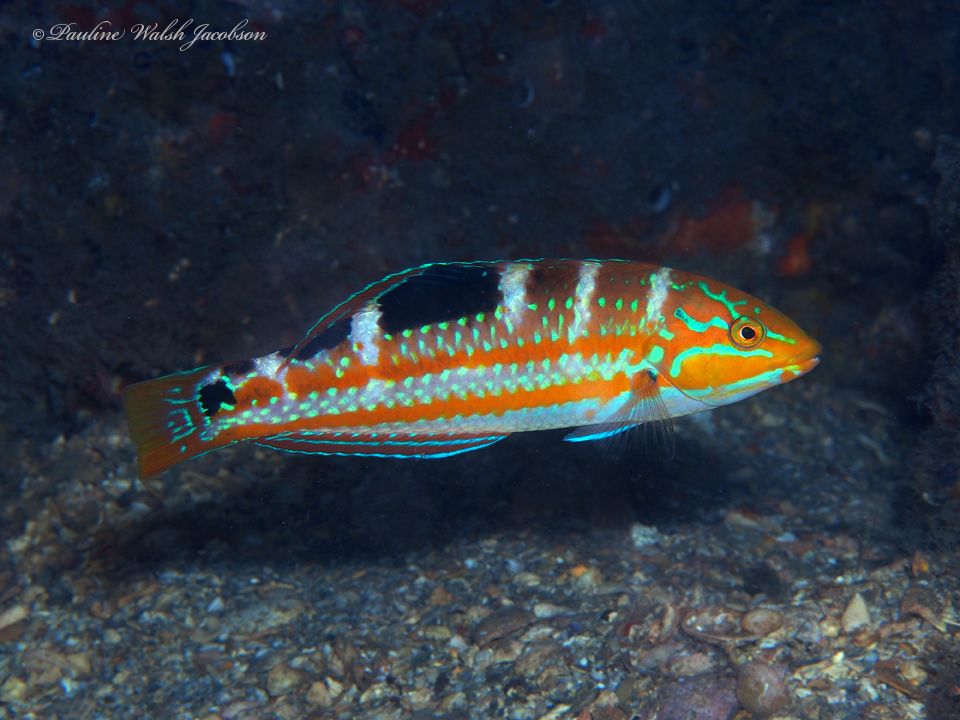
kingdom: Animalia
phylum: Chordata
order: Perciformes
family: Labridae
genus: Halichoeres
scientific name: Halichoeres radiatus
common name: Puddingwife
